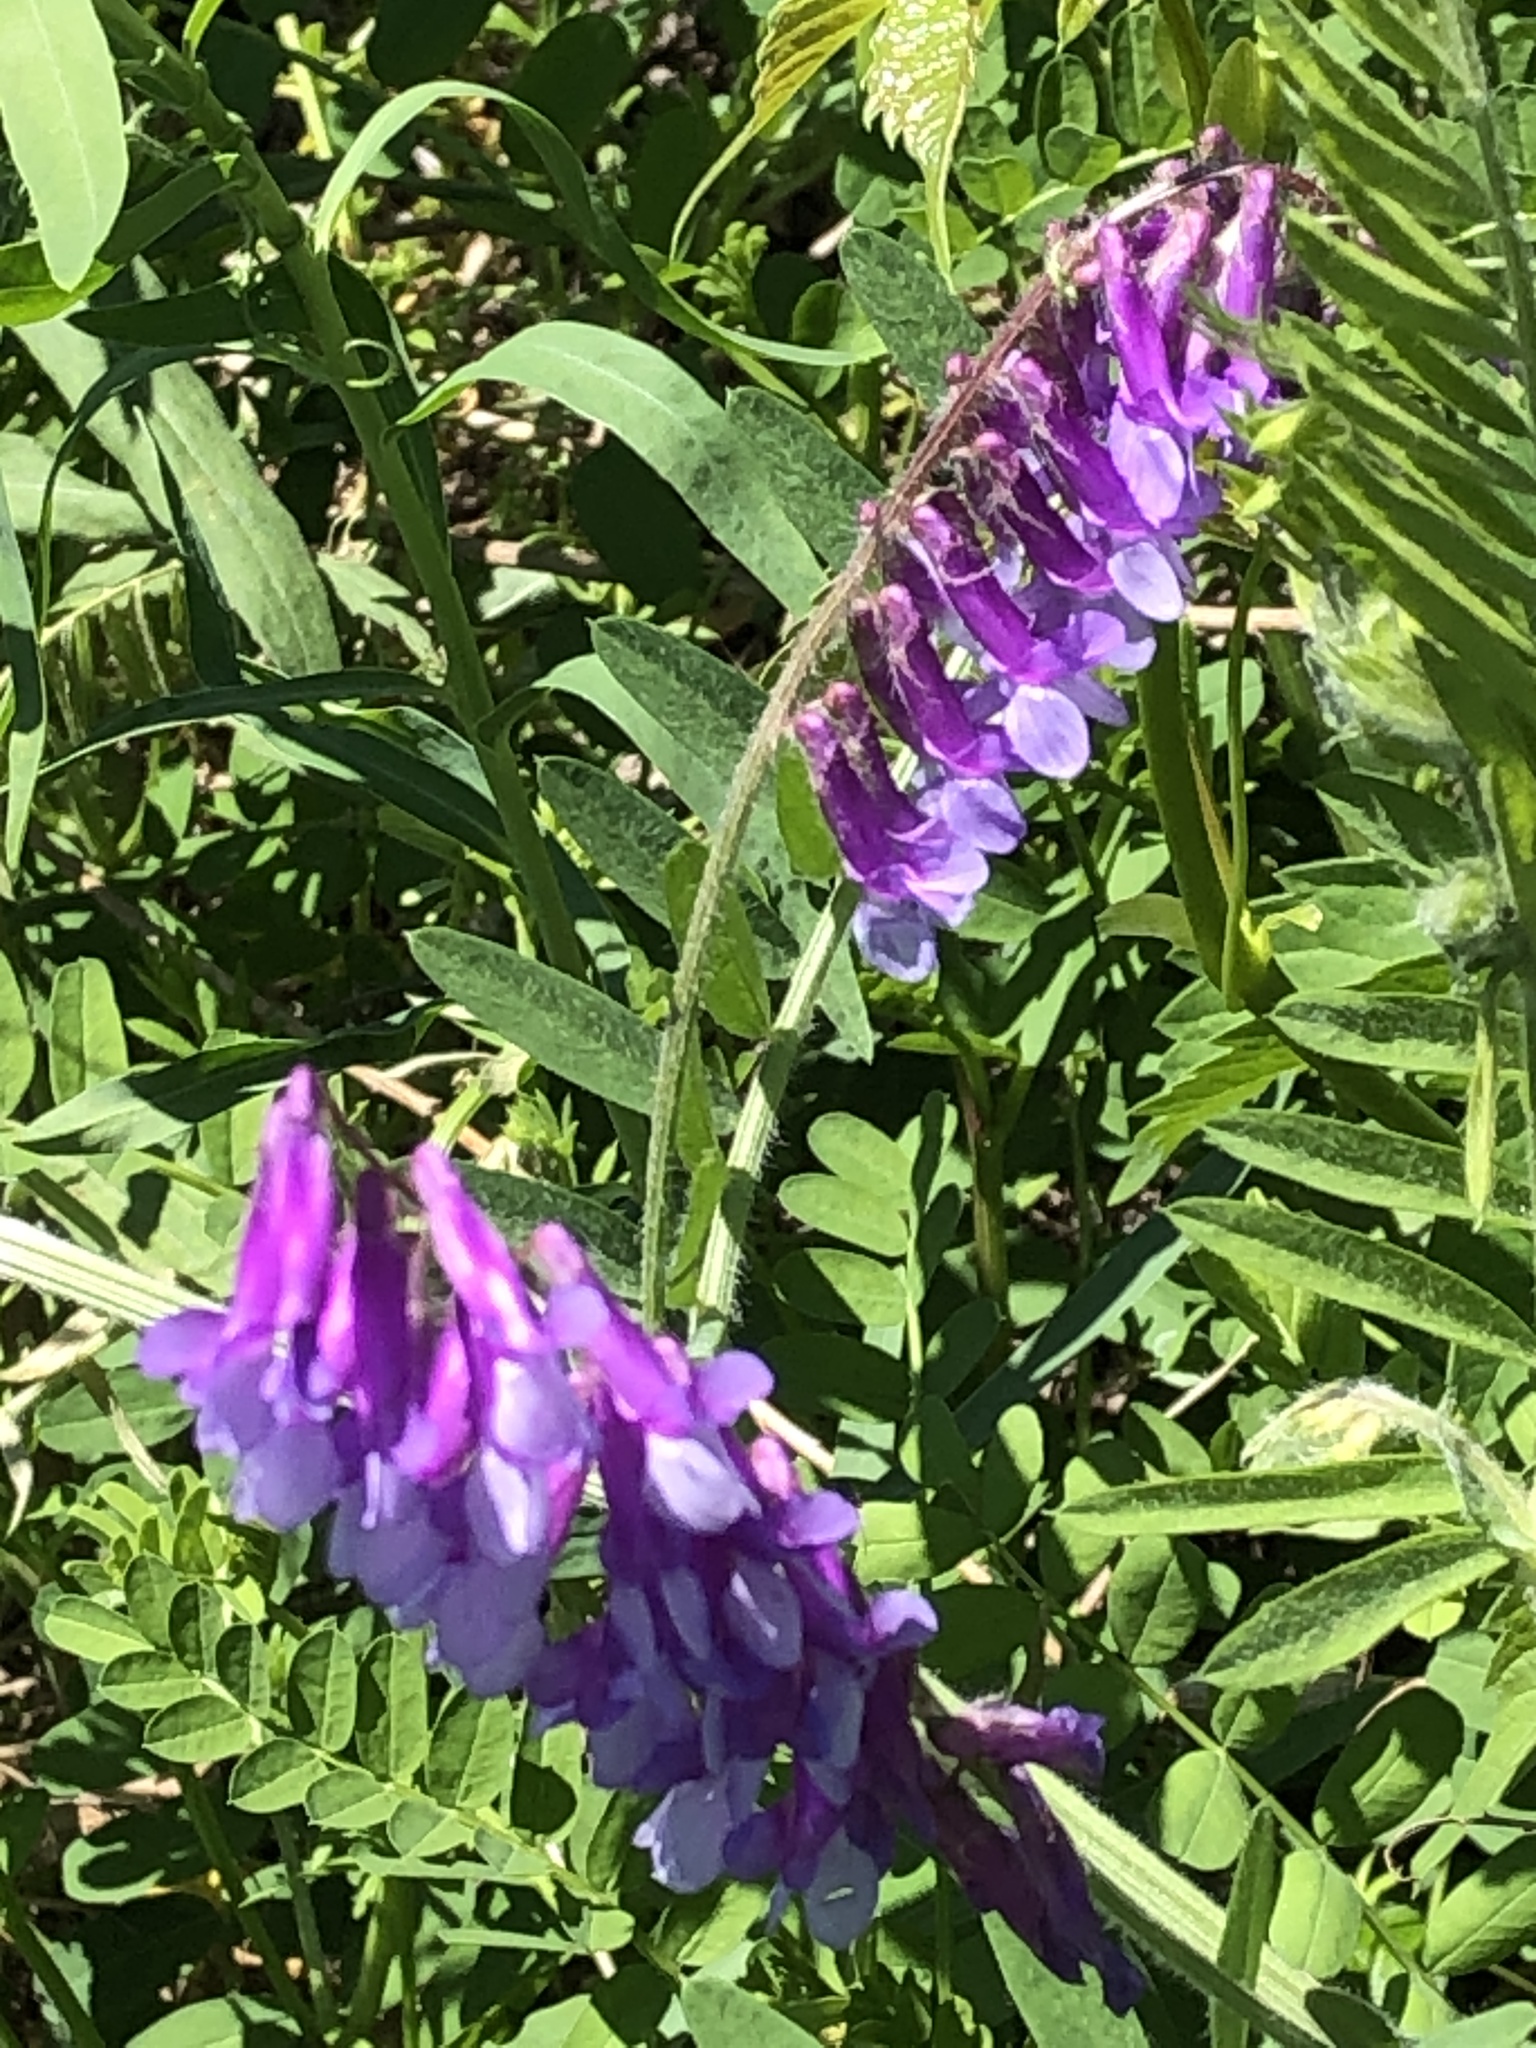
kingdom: Plantae
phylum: Tracheophyta
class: Magnoliopsida
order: Fabales
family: Fabaceae
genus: Vicia
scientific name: Vicia villosa
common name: Fodder vetch
